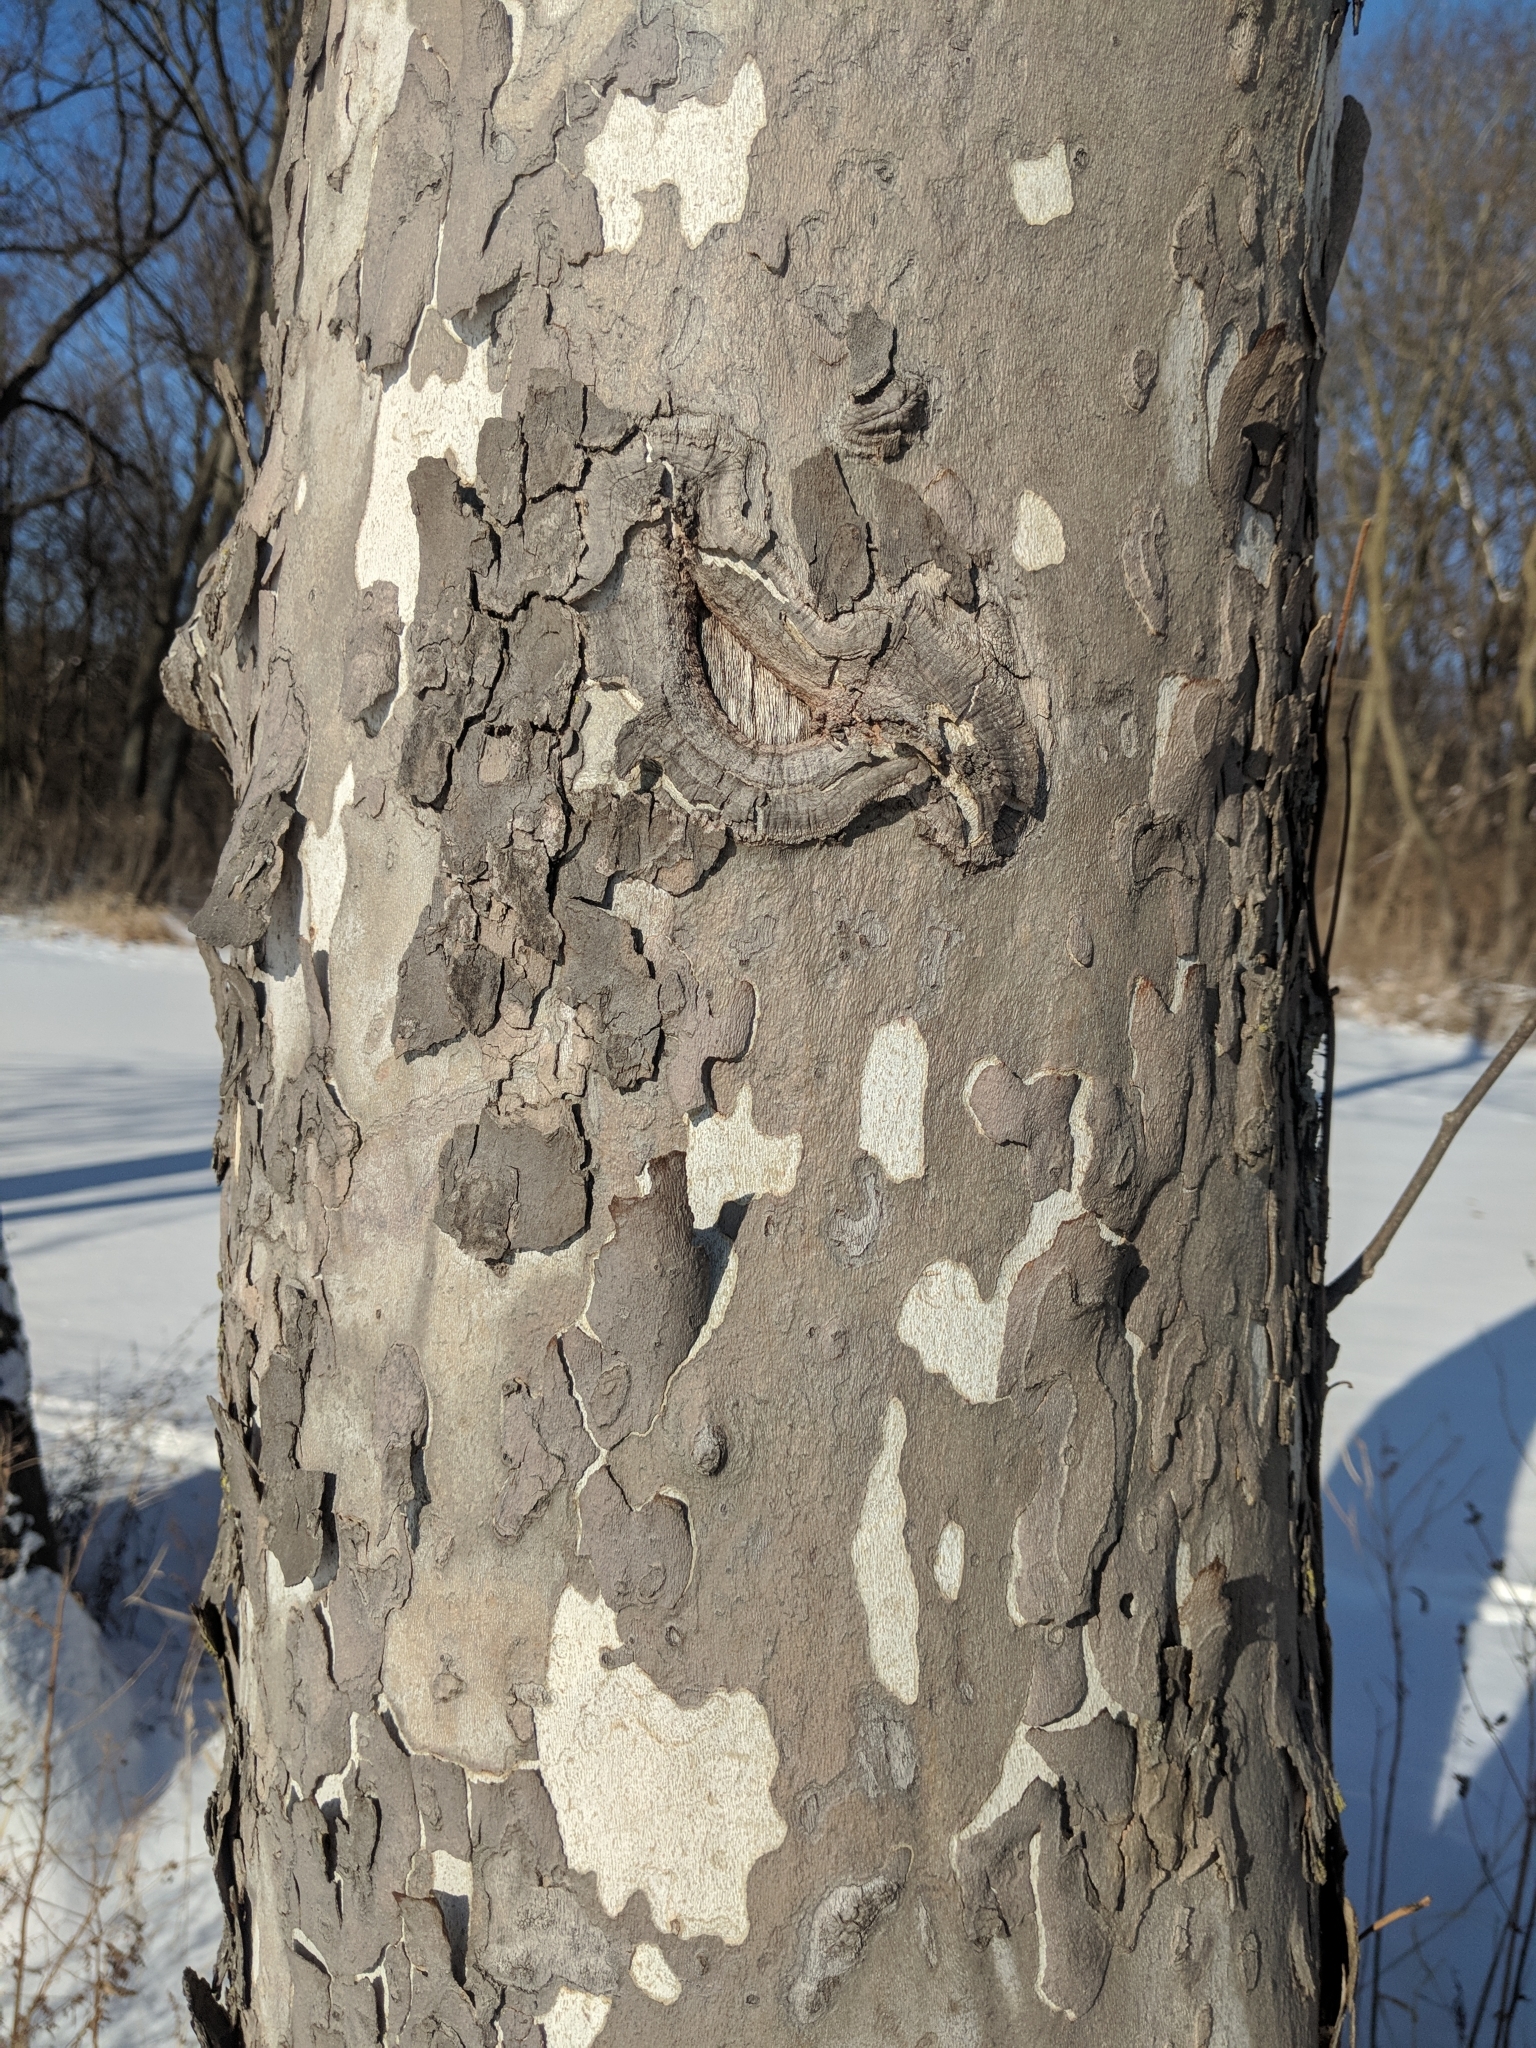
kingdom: Plantae
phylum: Tracheophyta
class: Magnoliopsida
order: Proteales
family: Platanaceae
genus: Platanus
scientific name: Platanus occidentalis
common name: American sycamore
